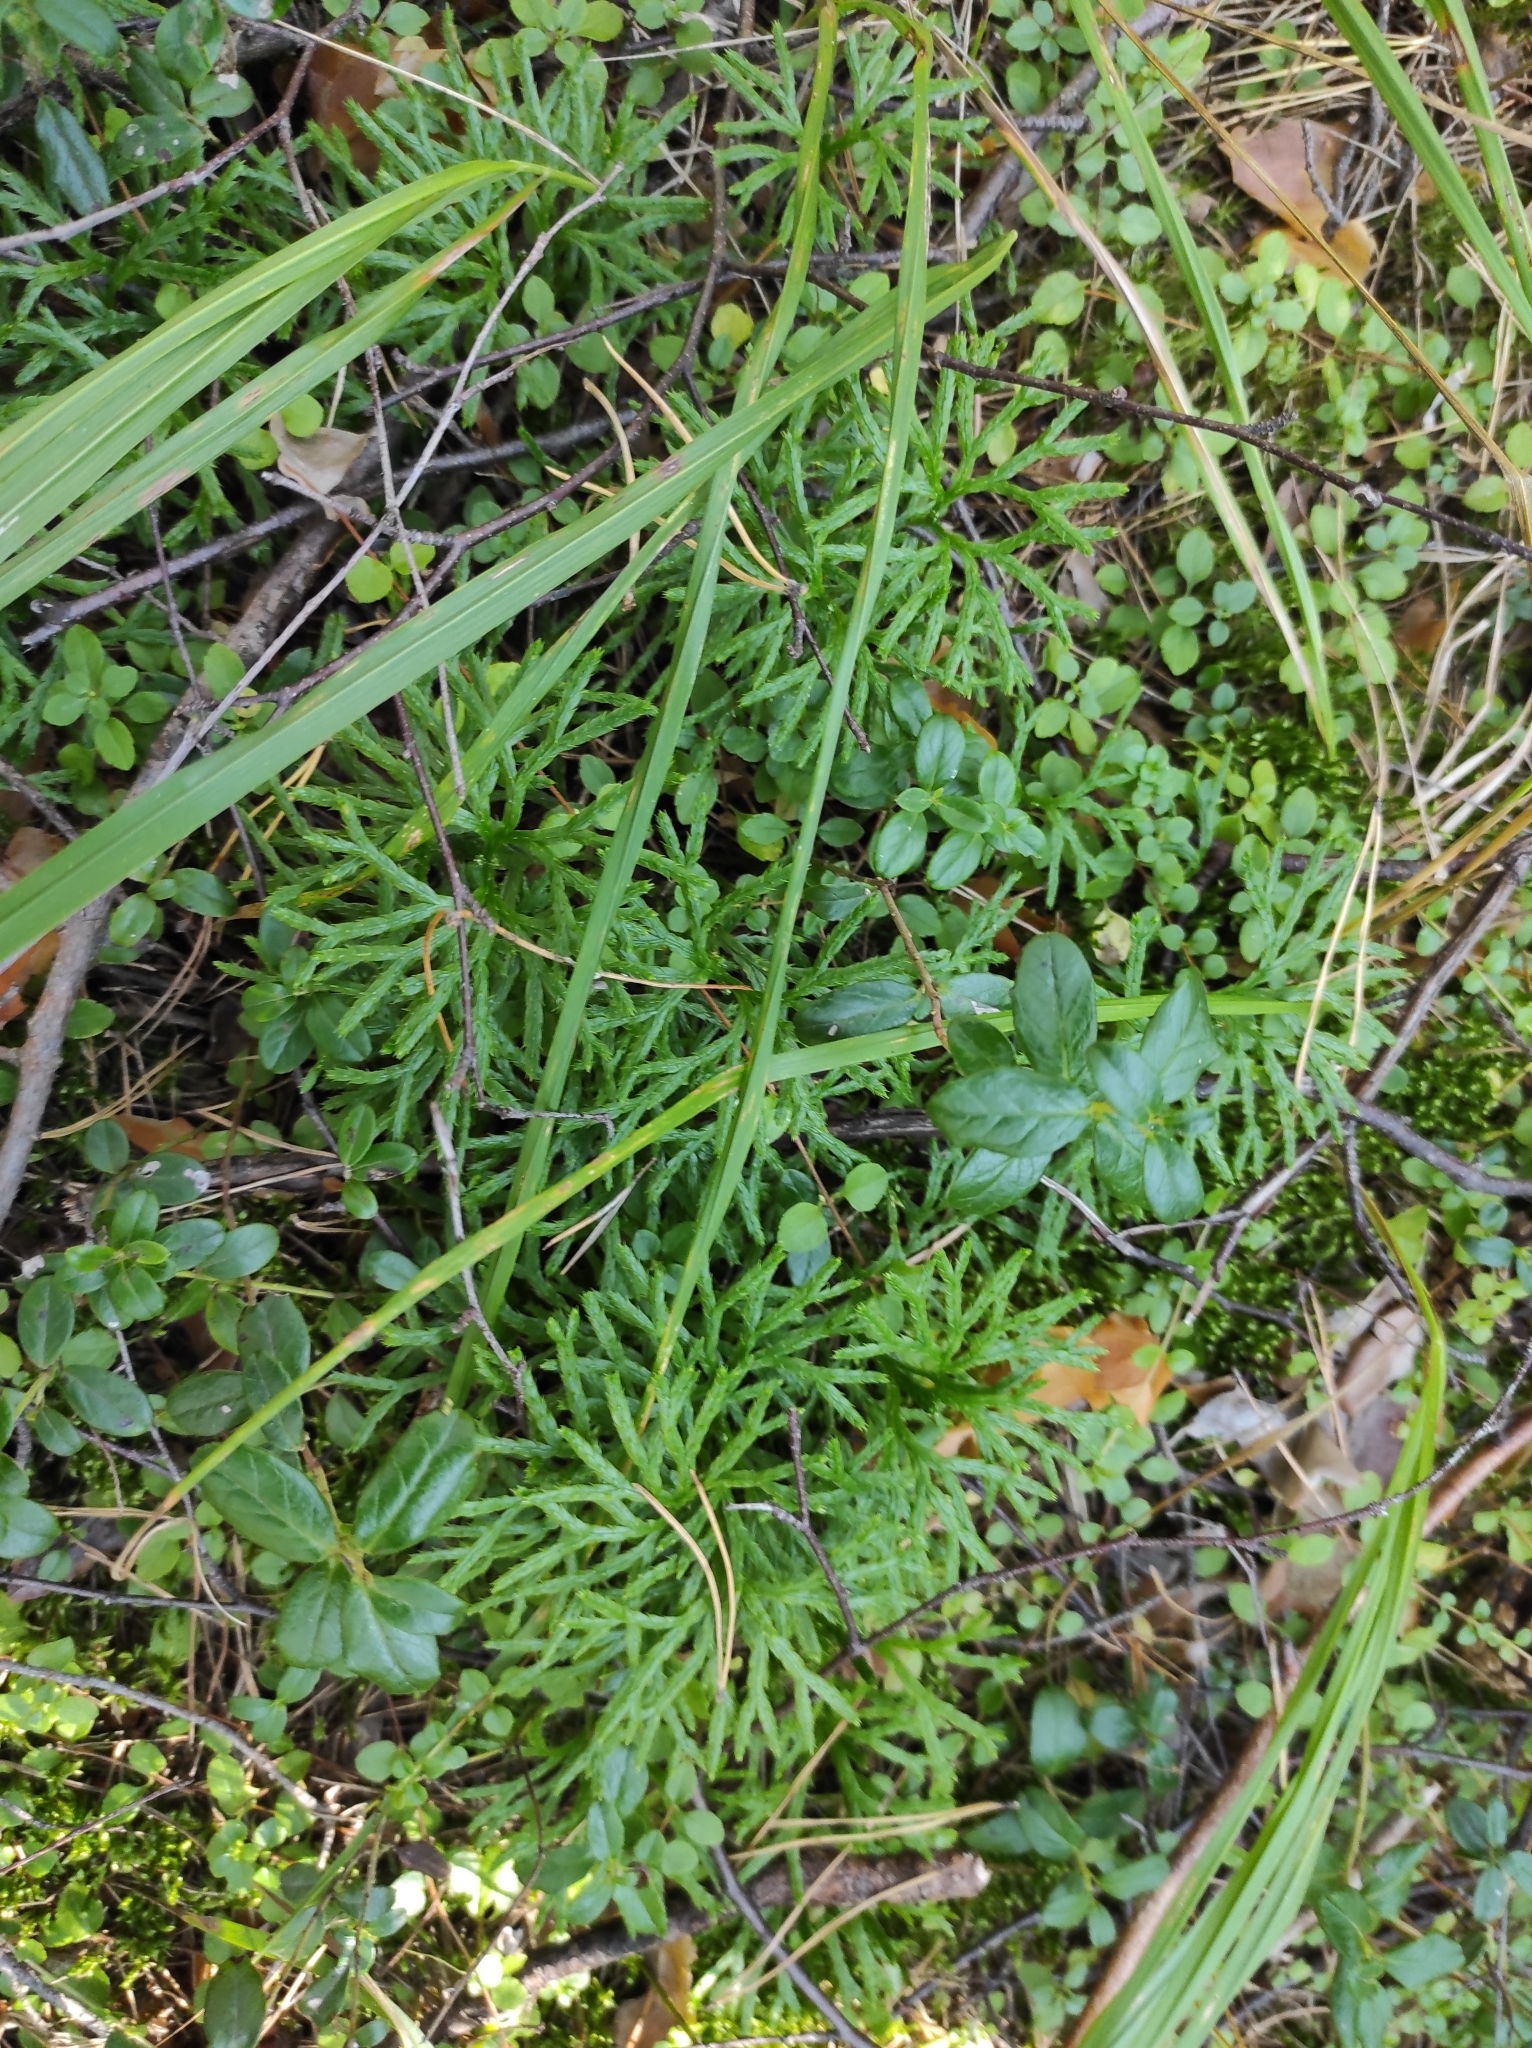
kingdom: Plantae
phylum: Tracheophyta
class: Lycopodiopsida
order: Lycopodiales
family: Lycopodiaceae
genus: Diphasiastrum
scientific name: Diphasiastrum complanatum
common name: Northern running-pine
